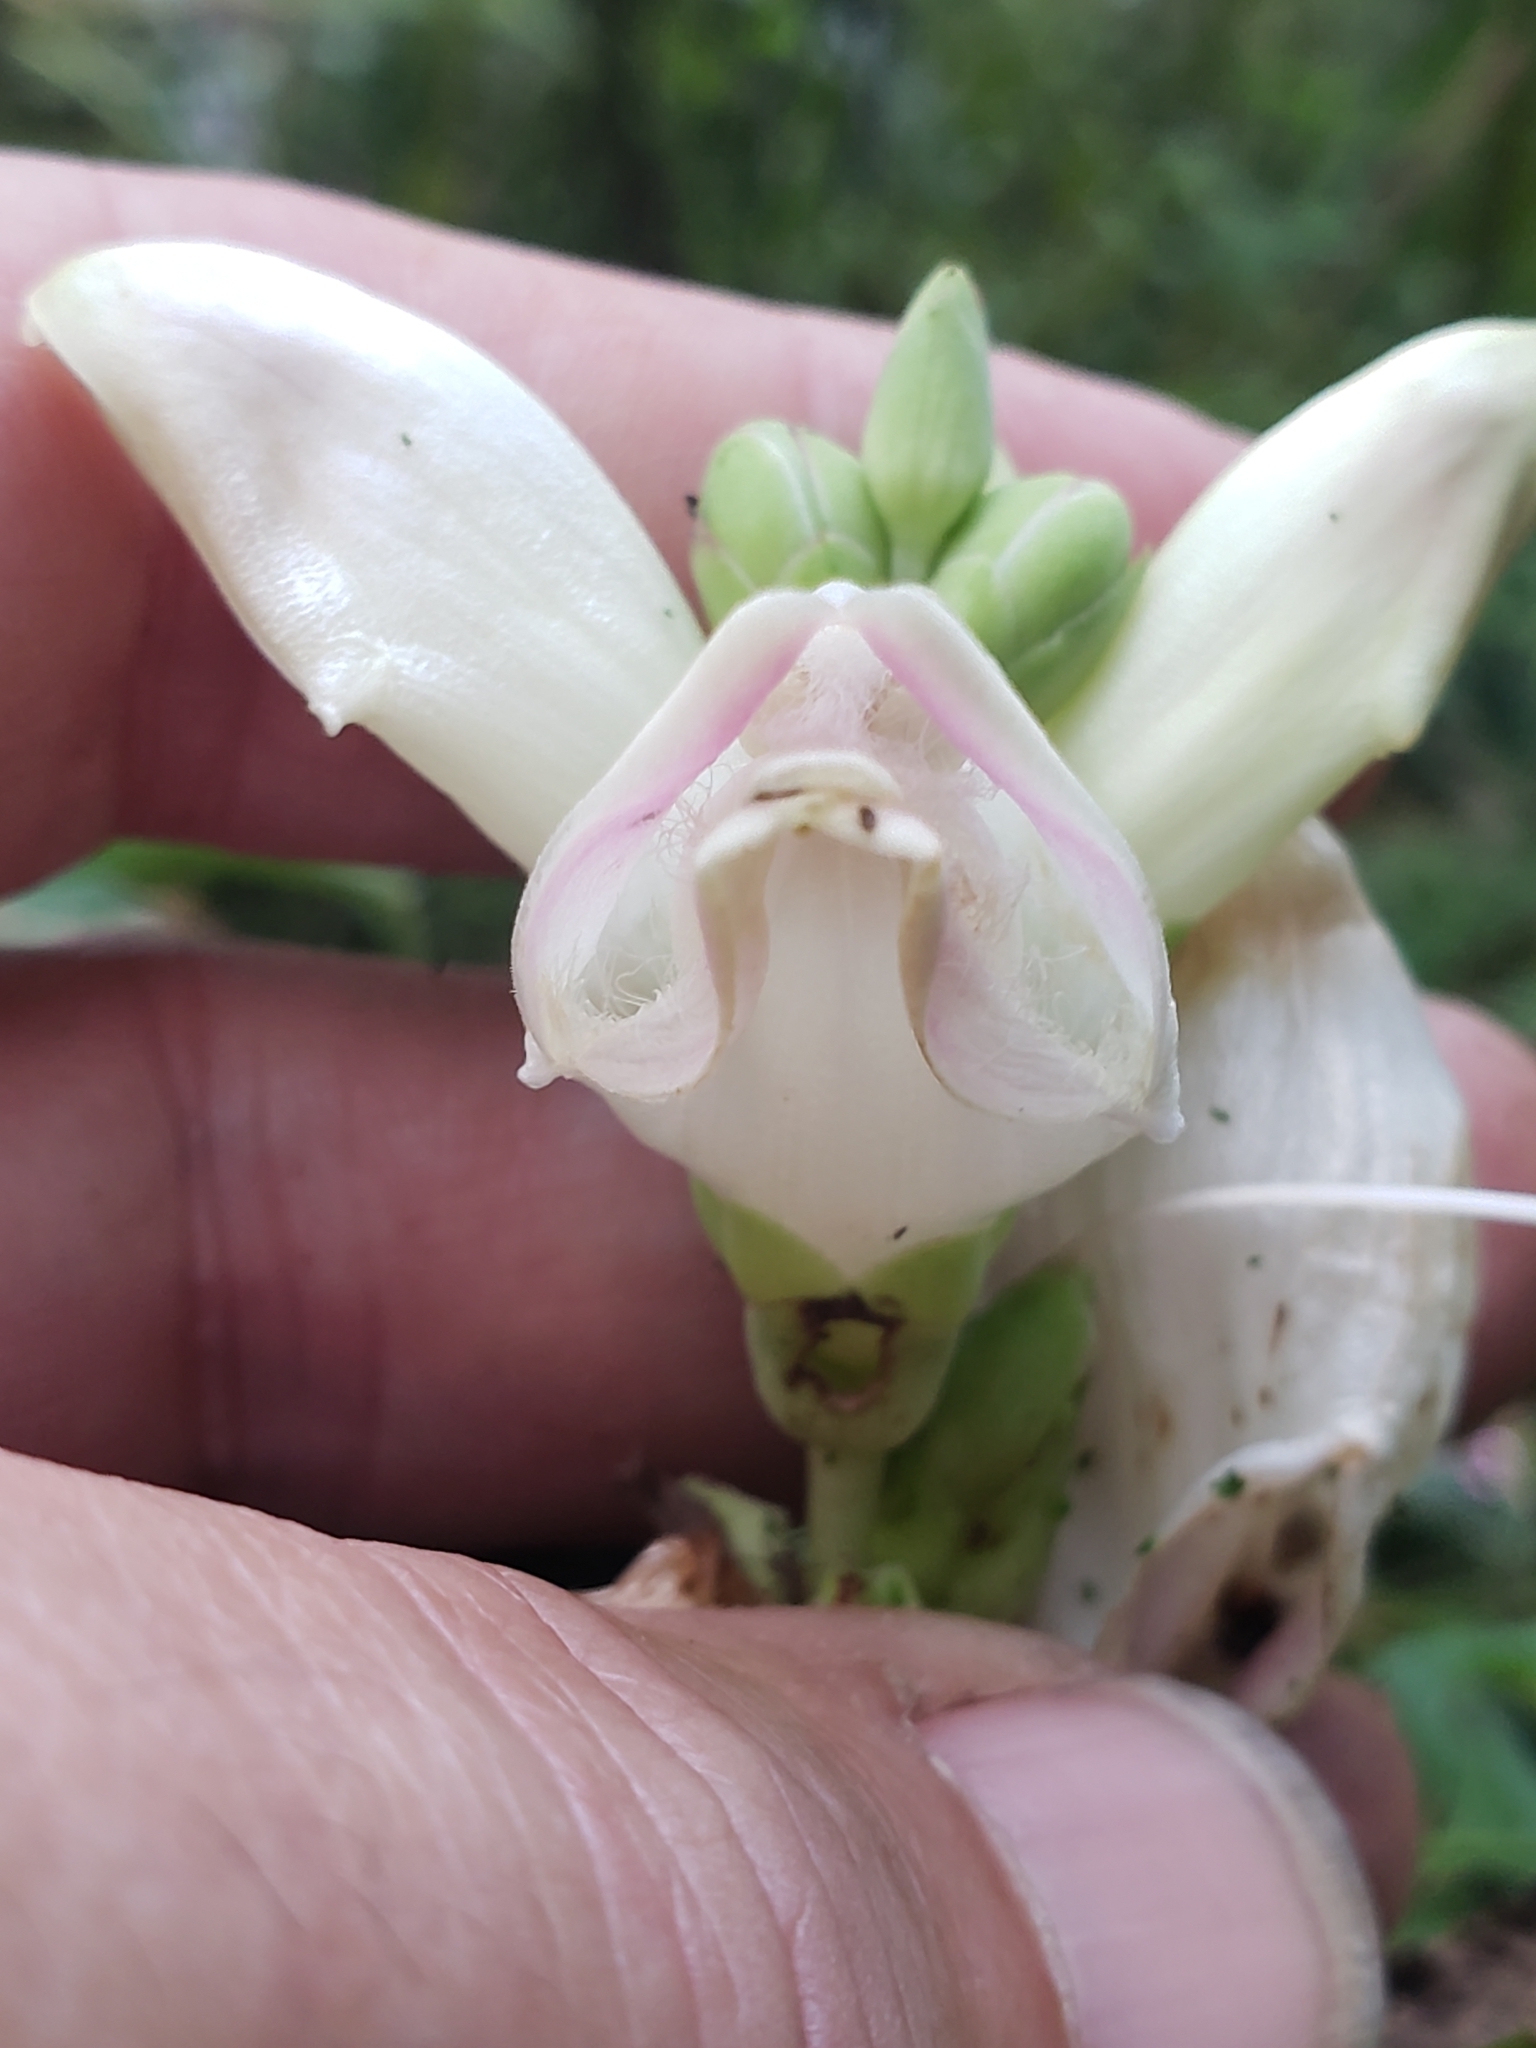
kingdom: Plantae
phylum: Tracheophyta
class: Magnoliopsida
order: Lamiales
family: Plantaginaceae
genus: Chelone
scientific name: Chelone glabra
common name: Snakehead
